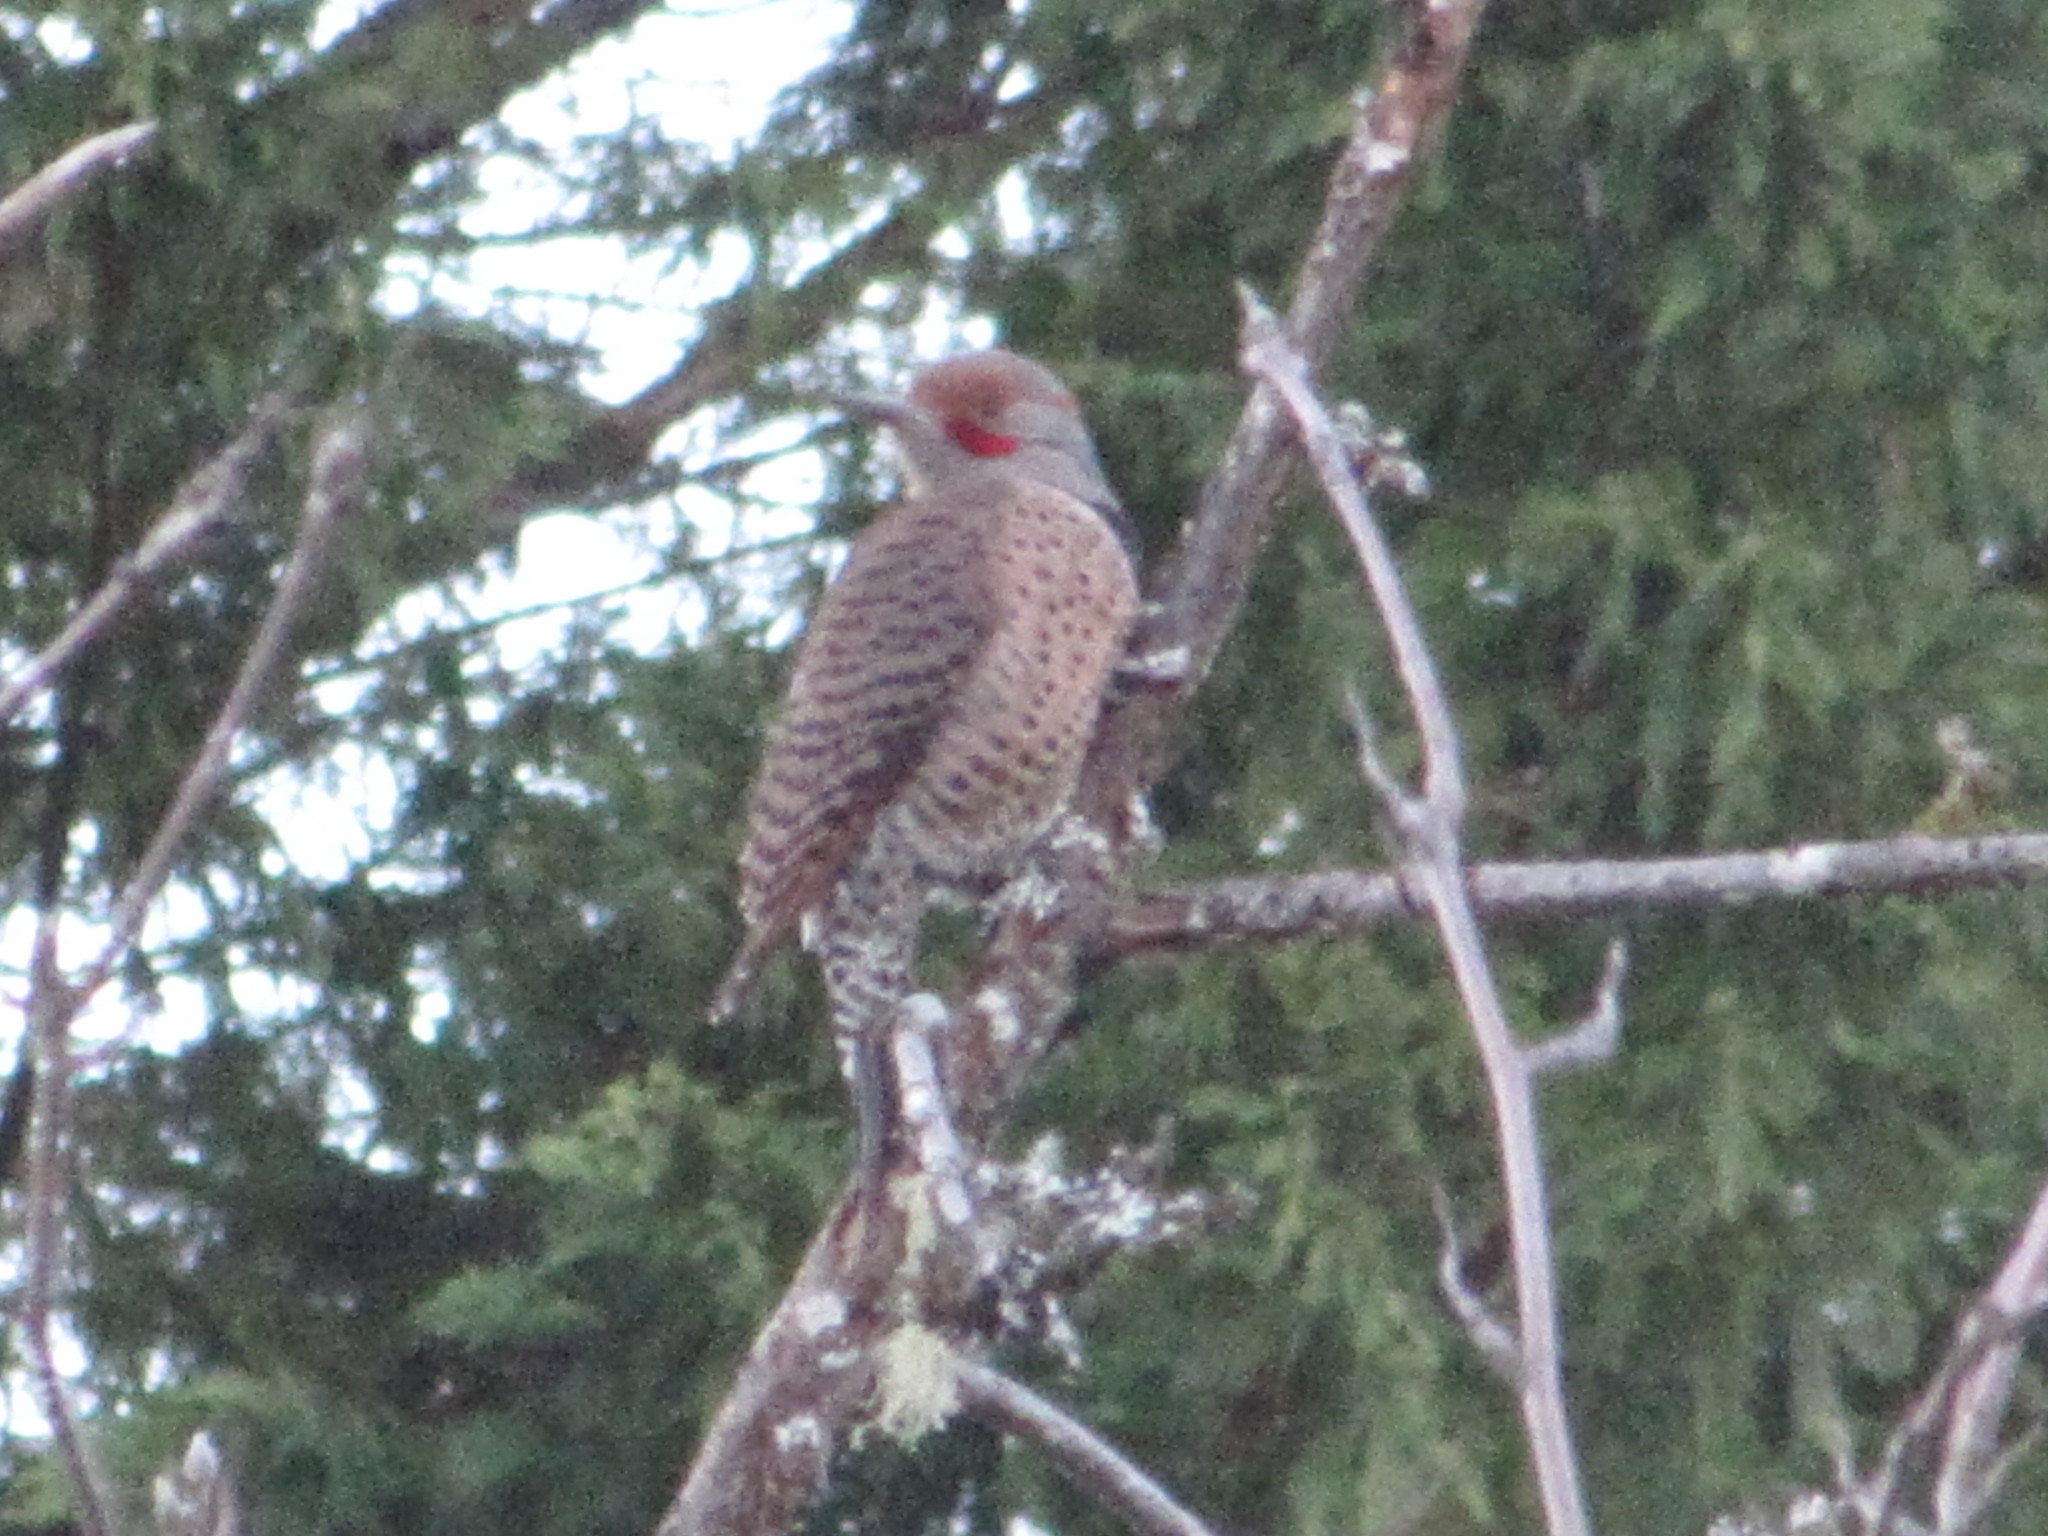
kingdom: Animalia
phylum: Chordata
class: Aves
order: Piciformes
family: Picidae
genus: Colaptes
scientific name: Colaptes auratus
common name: Northern flicker
